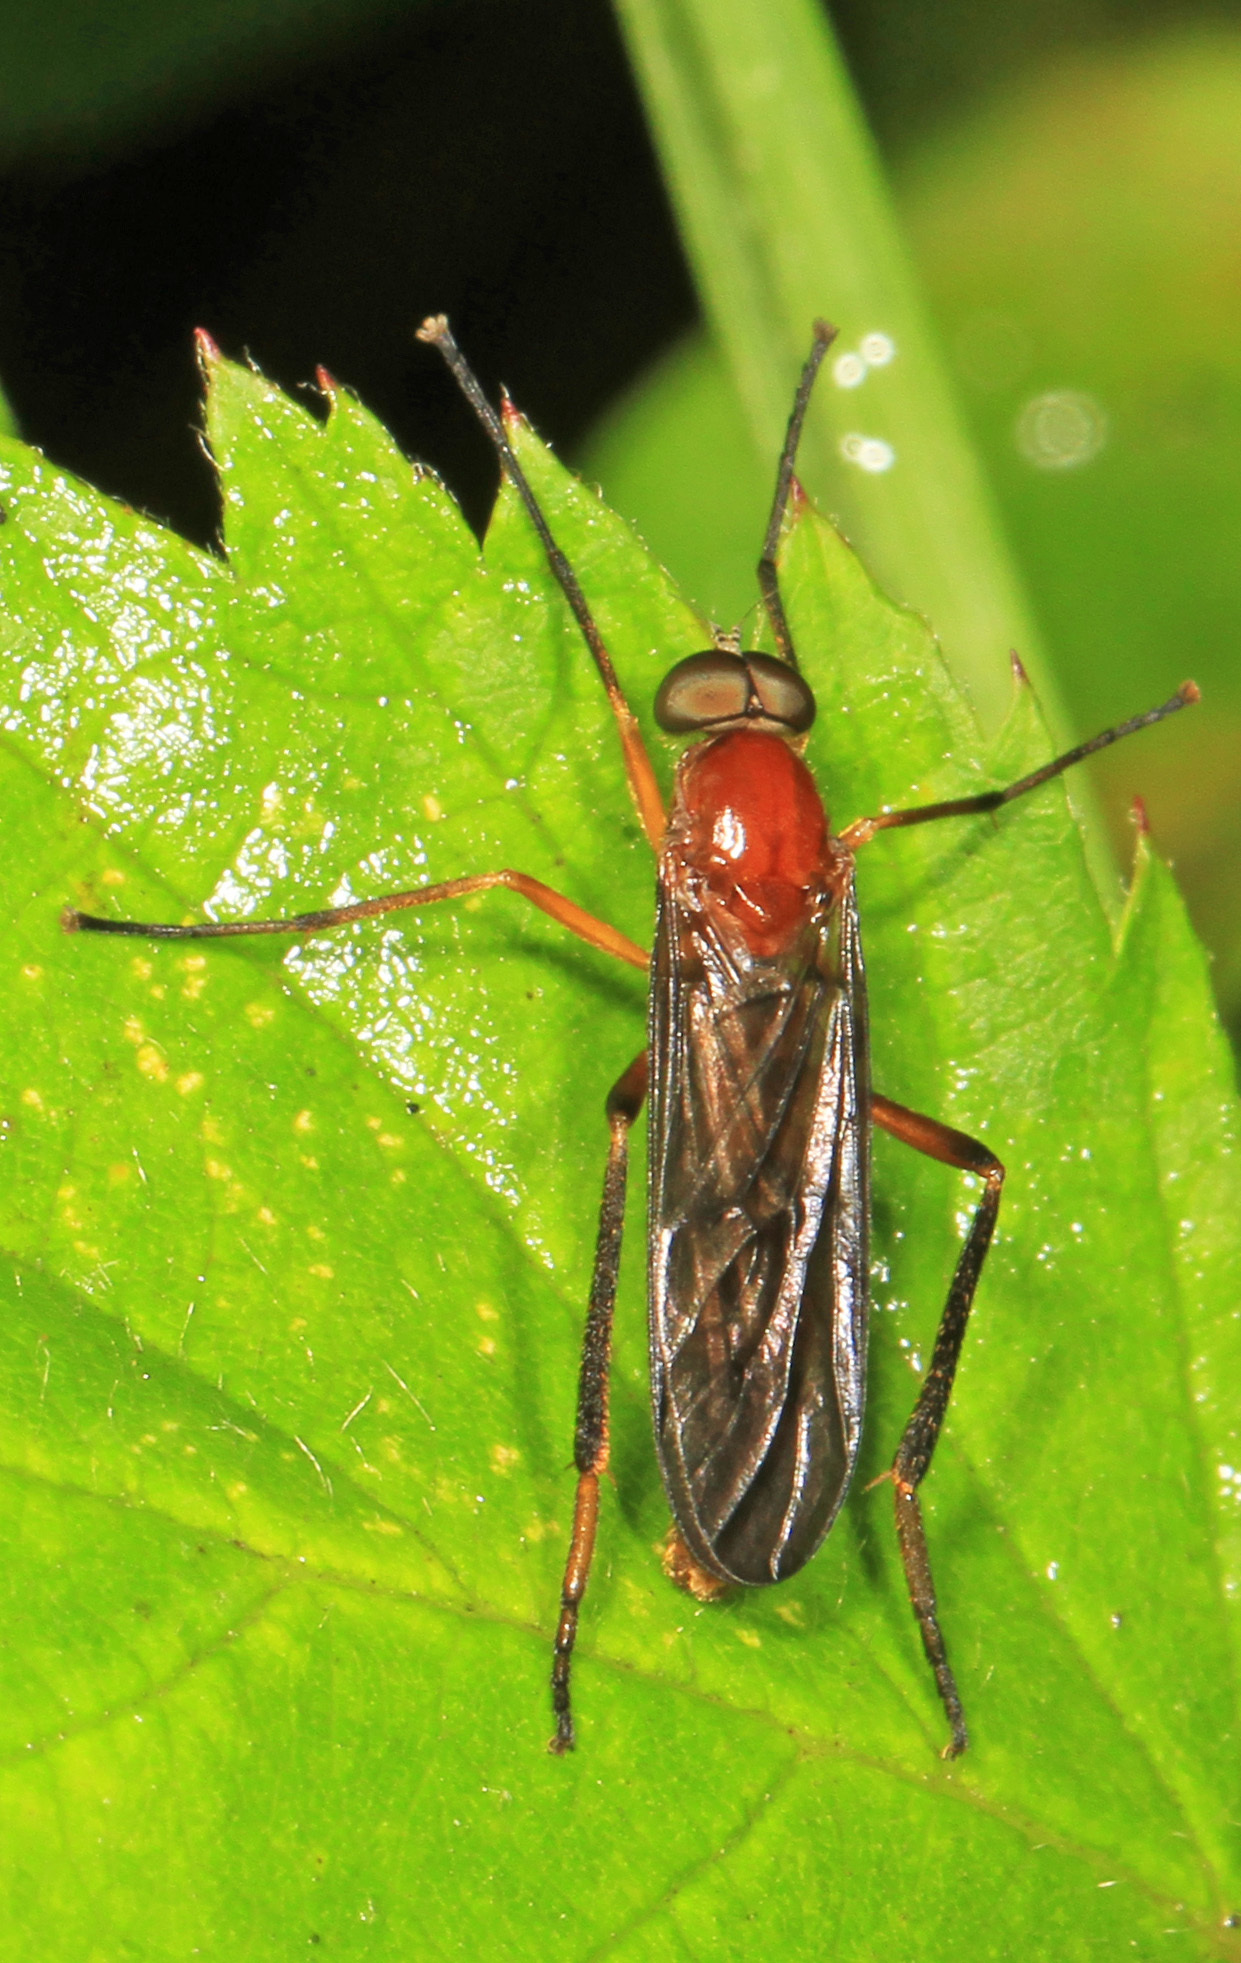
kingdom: Animalia
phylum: Arthropoda
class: Insecta
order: Diptera
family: Xylophagidae
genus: Dialysis
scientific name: Dialysis rufithorax
